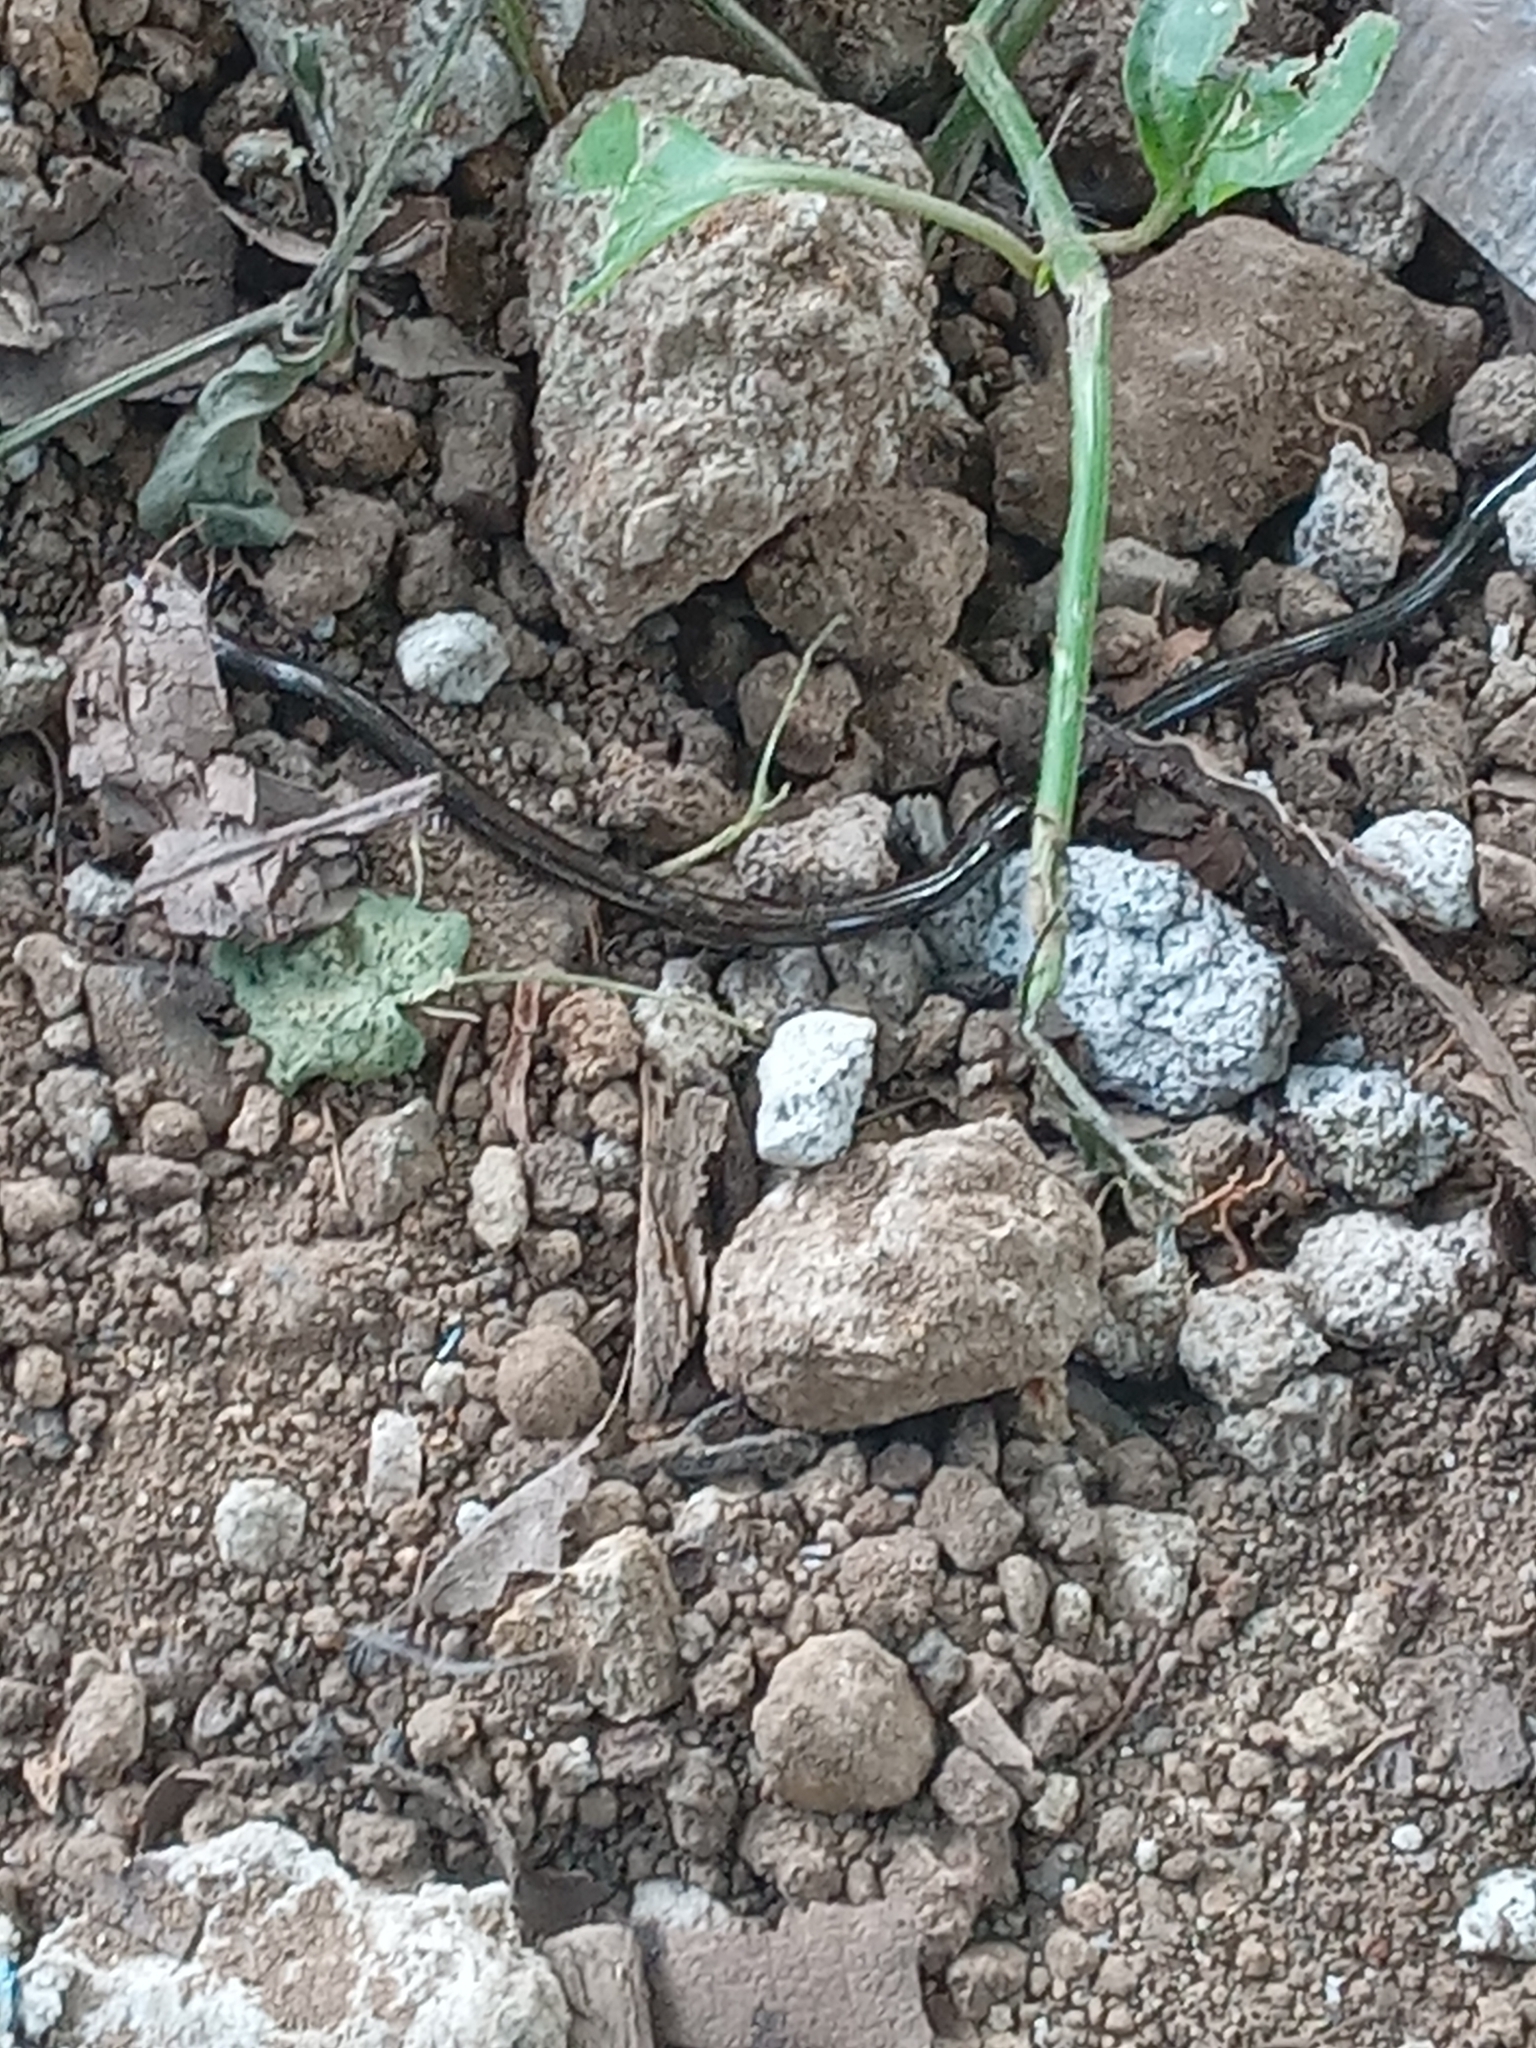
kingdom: Animalia
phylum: Chordata
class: Squamata
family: Anomalepididae
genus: Liotyphlops
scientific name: Liotyphlops albirostris
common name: Whitenose blind snake
